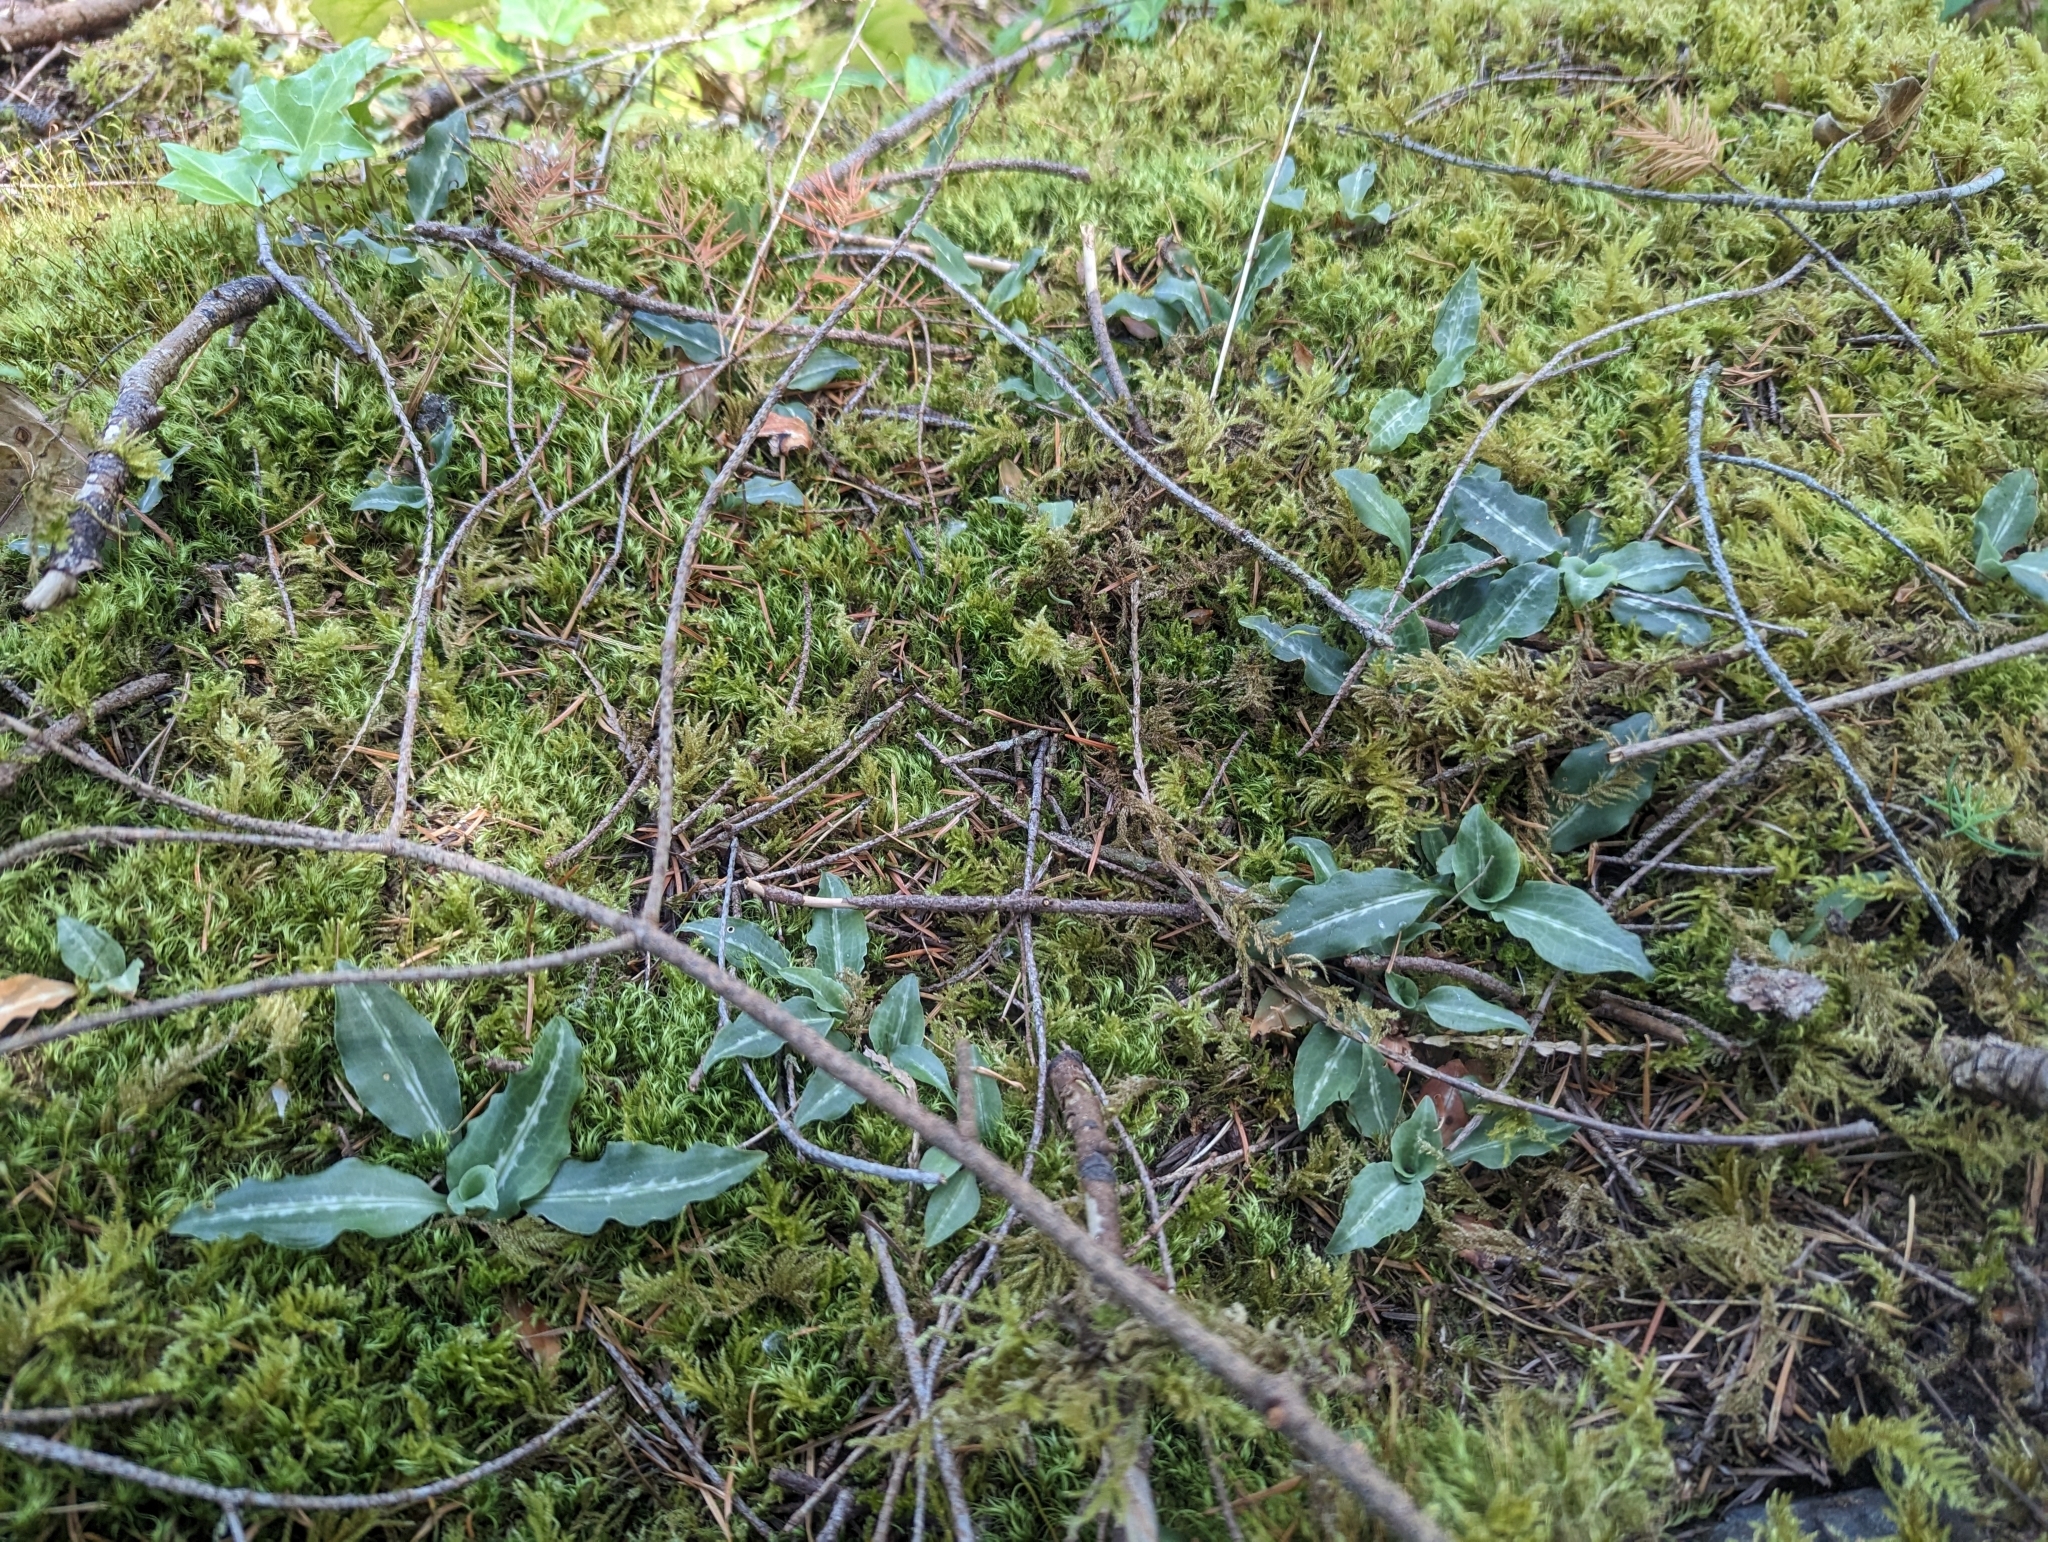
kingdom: Plantae
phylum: Tracheophyta
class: Liliopsida
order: Asparagales
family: Orchidaceae
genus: Goodyera
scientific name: Goodyera oblongifolia
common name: Giant rattlesnake-plantain
